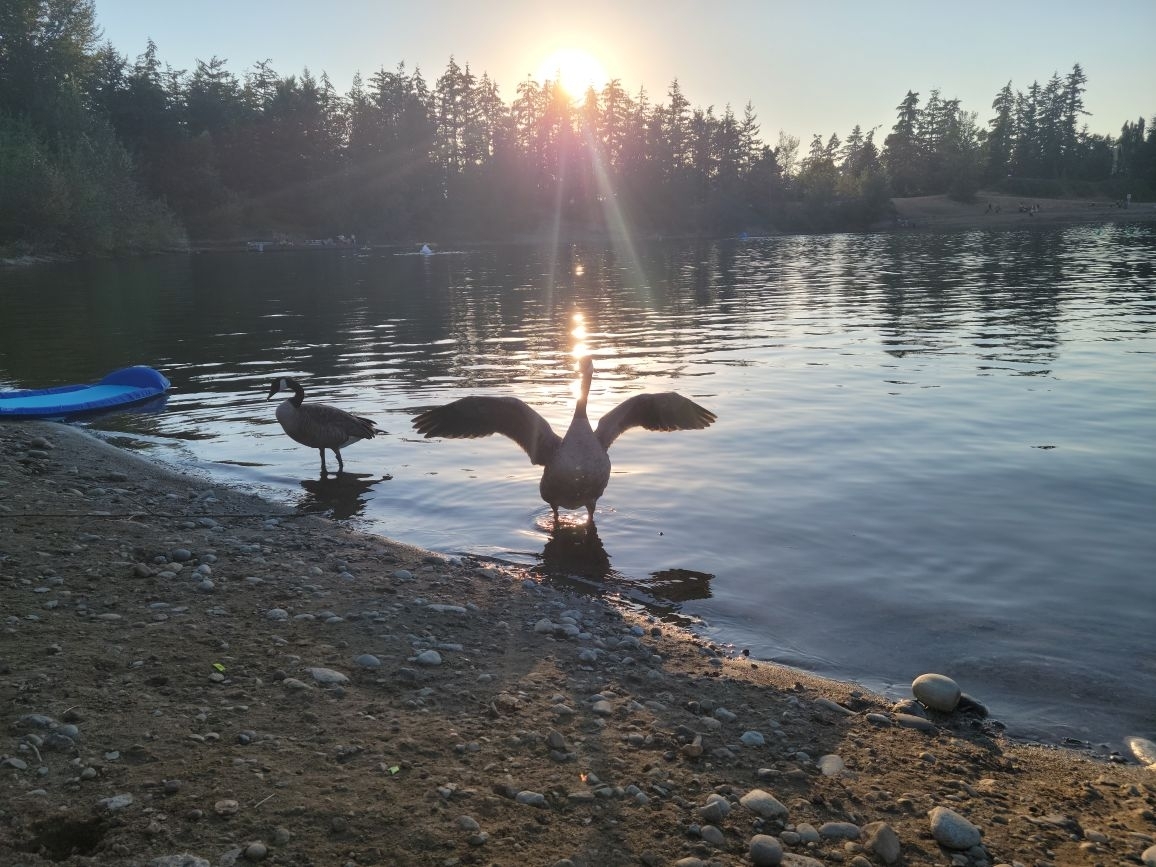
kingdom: Animalia
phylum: Chordata
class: Aves
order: Anseriformes
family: Anatidae
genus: Branta
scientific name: Branta canadensis
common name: Canada goose
